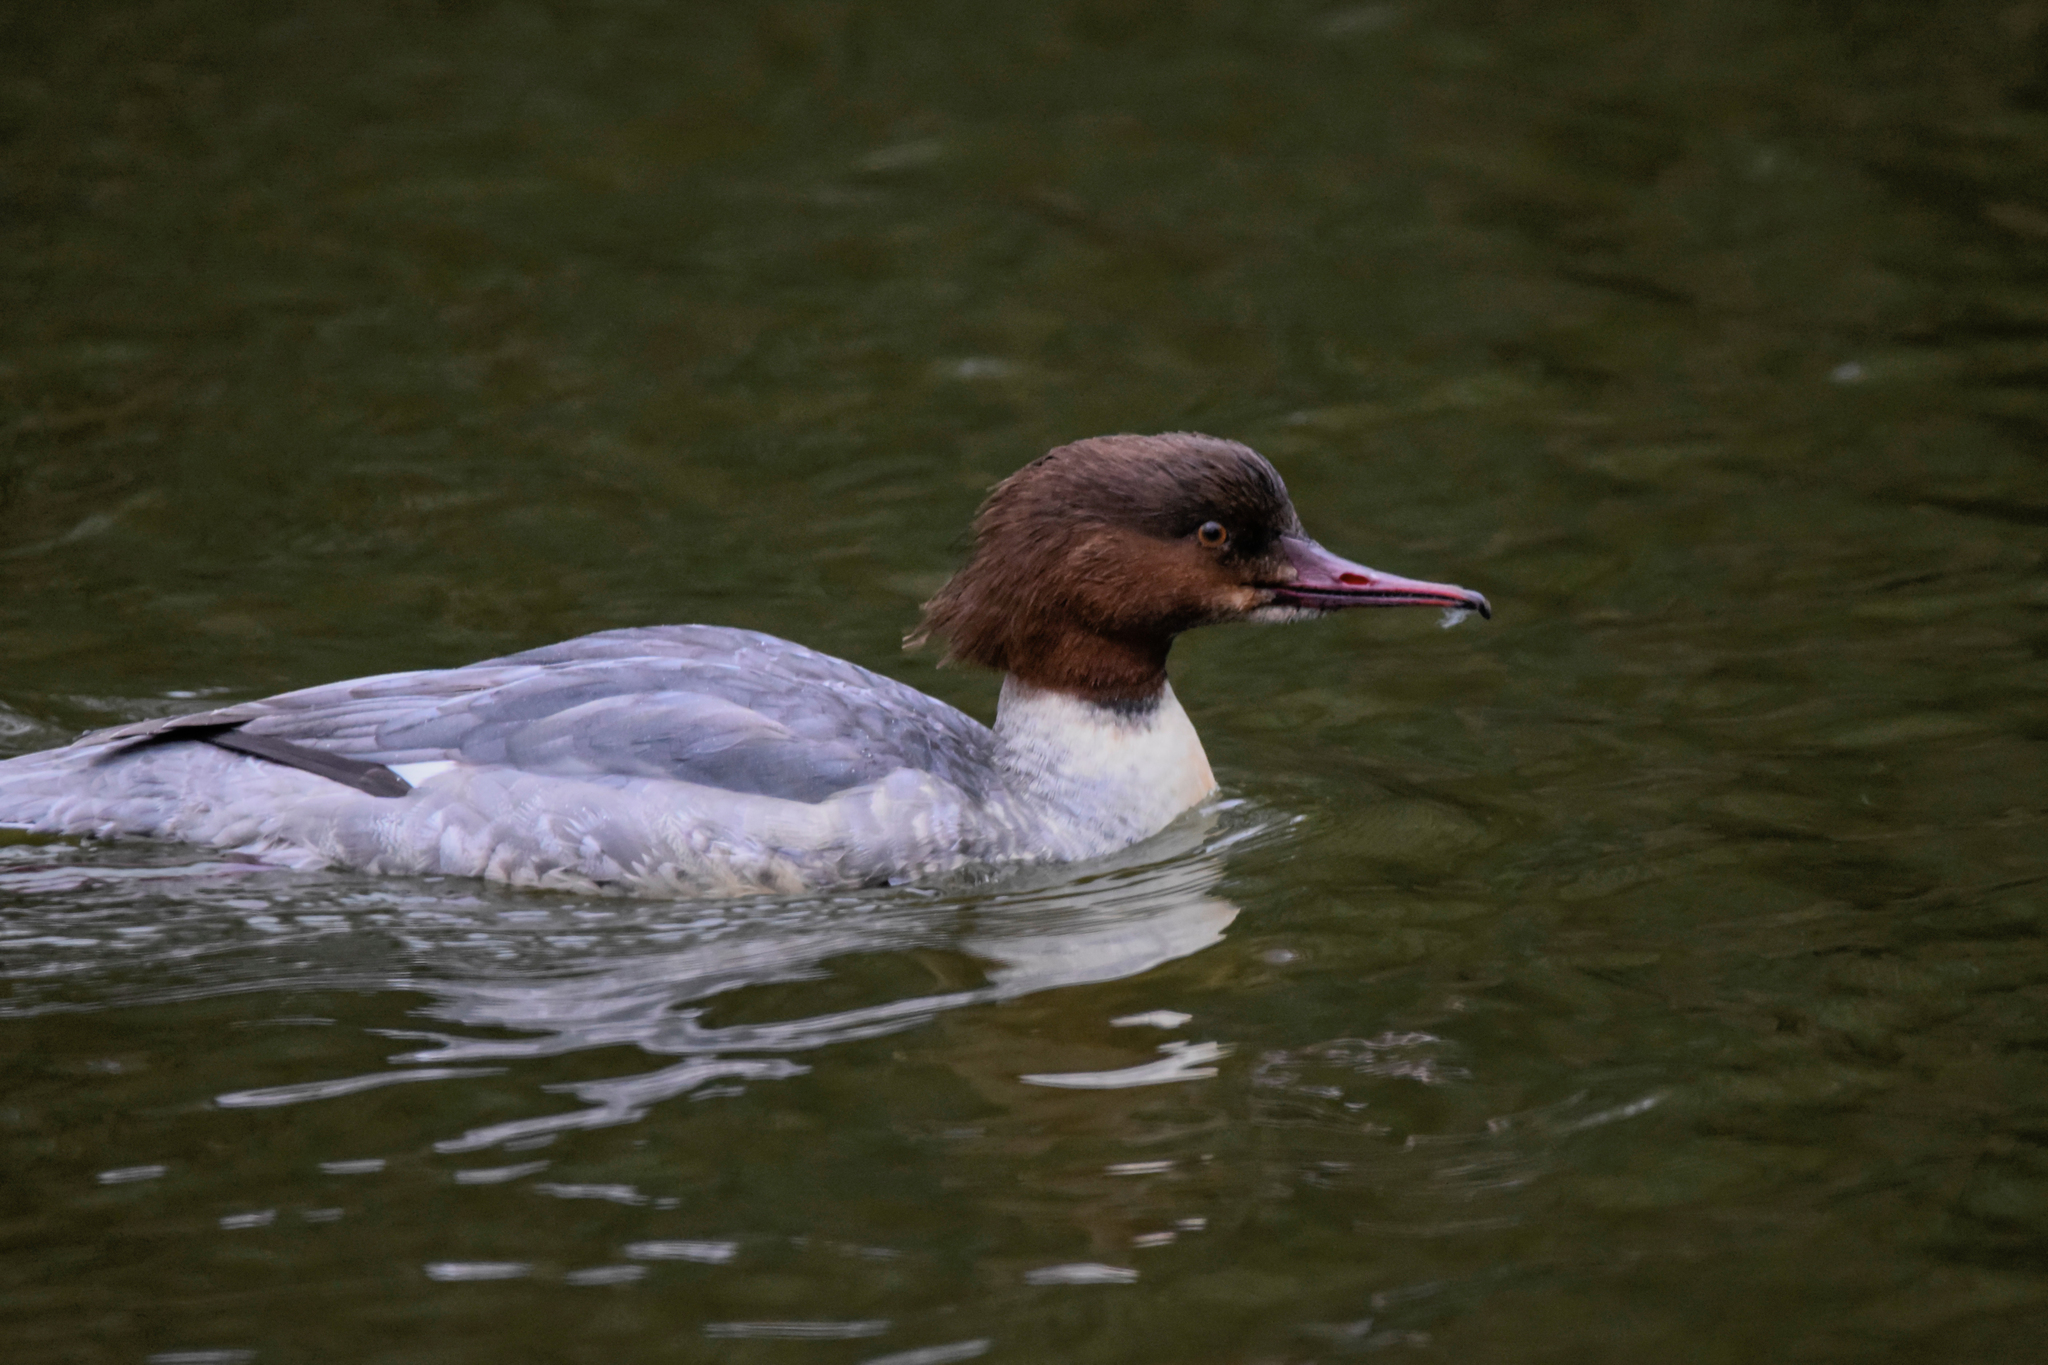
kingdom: Animalia
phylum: Chordata
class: Aves
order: Anseriformes
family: Anatidae
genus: Mergus
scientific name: Mergus merganser
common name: Common merganser
